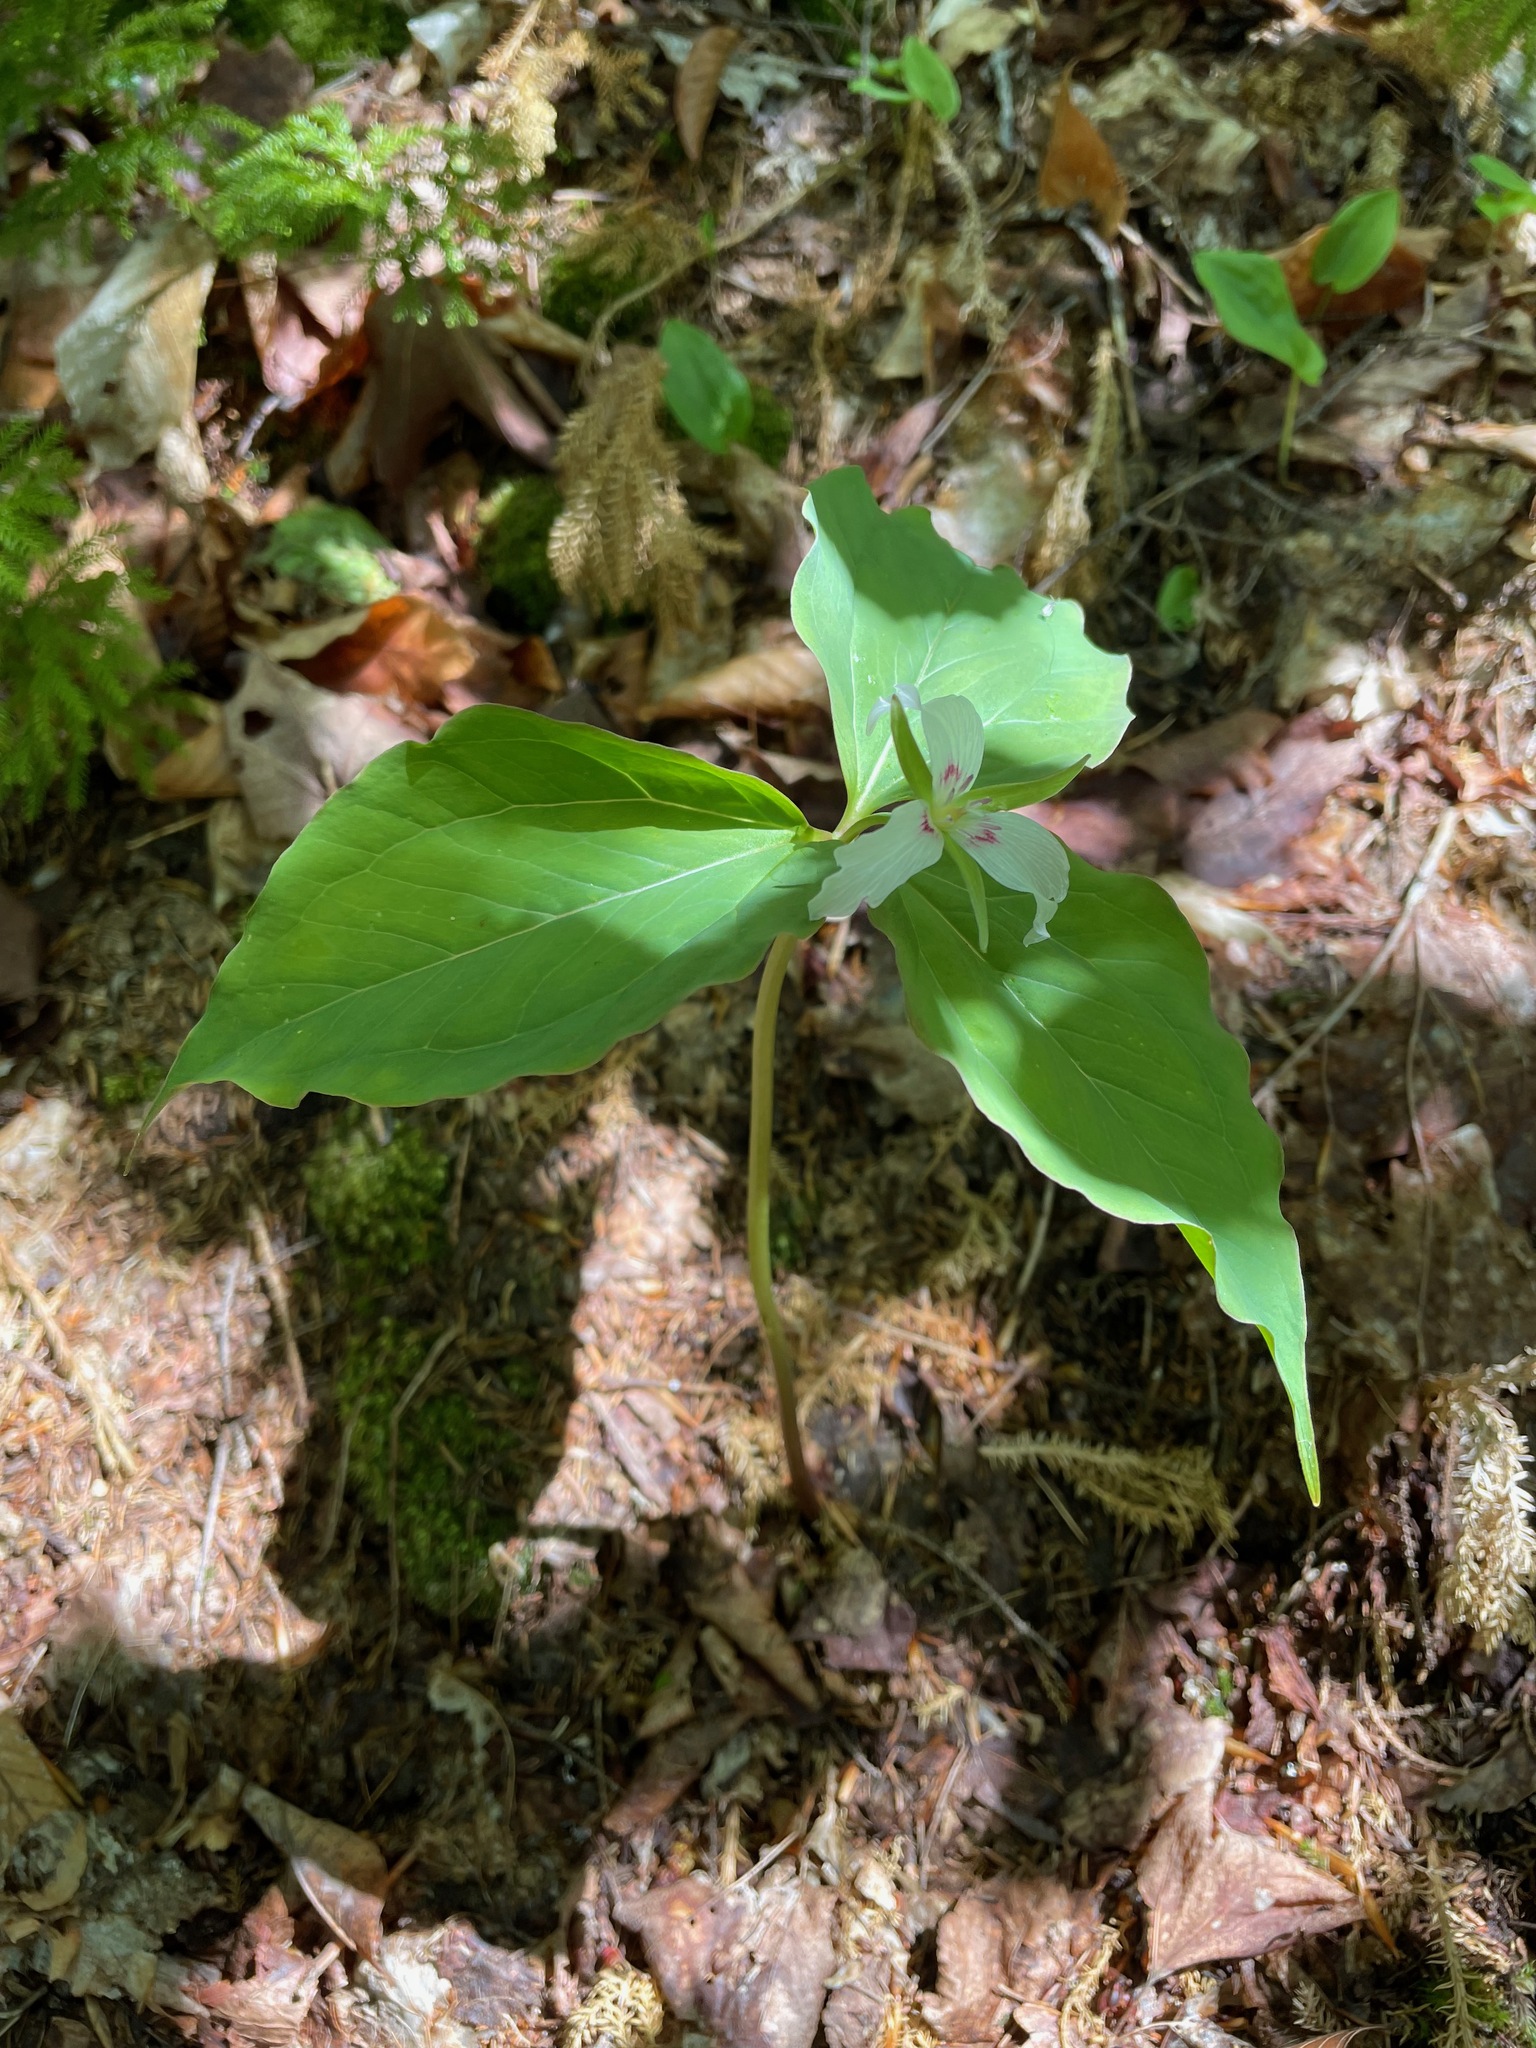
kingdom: Plantae
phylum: Tracheophyta
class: Liliopsida
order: Liliales
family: Melanthiaceae
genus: Trillium
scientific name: Trillium undulatum
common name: Paint trillium
